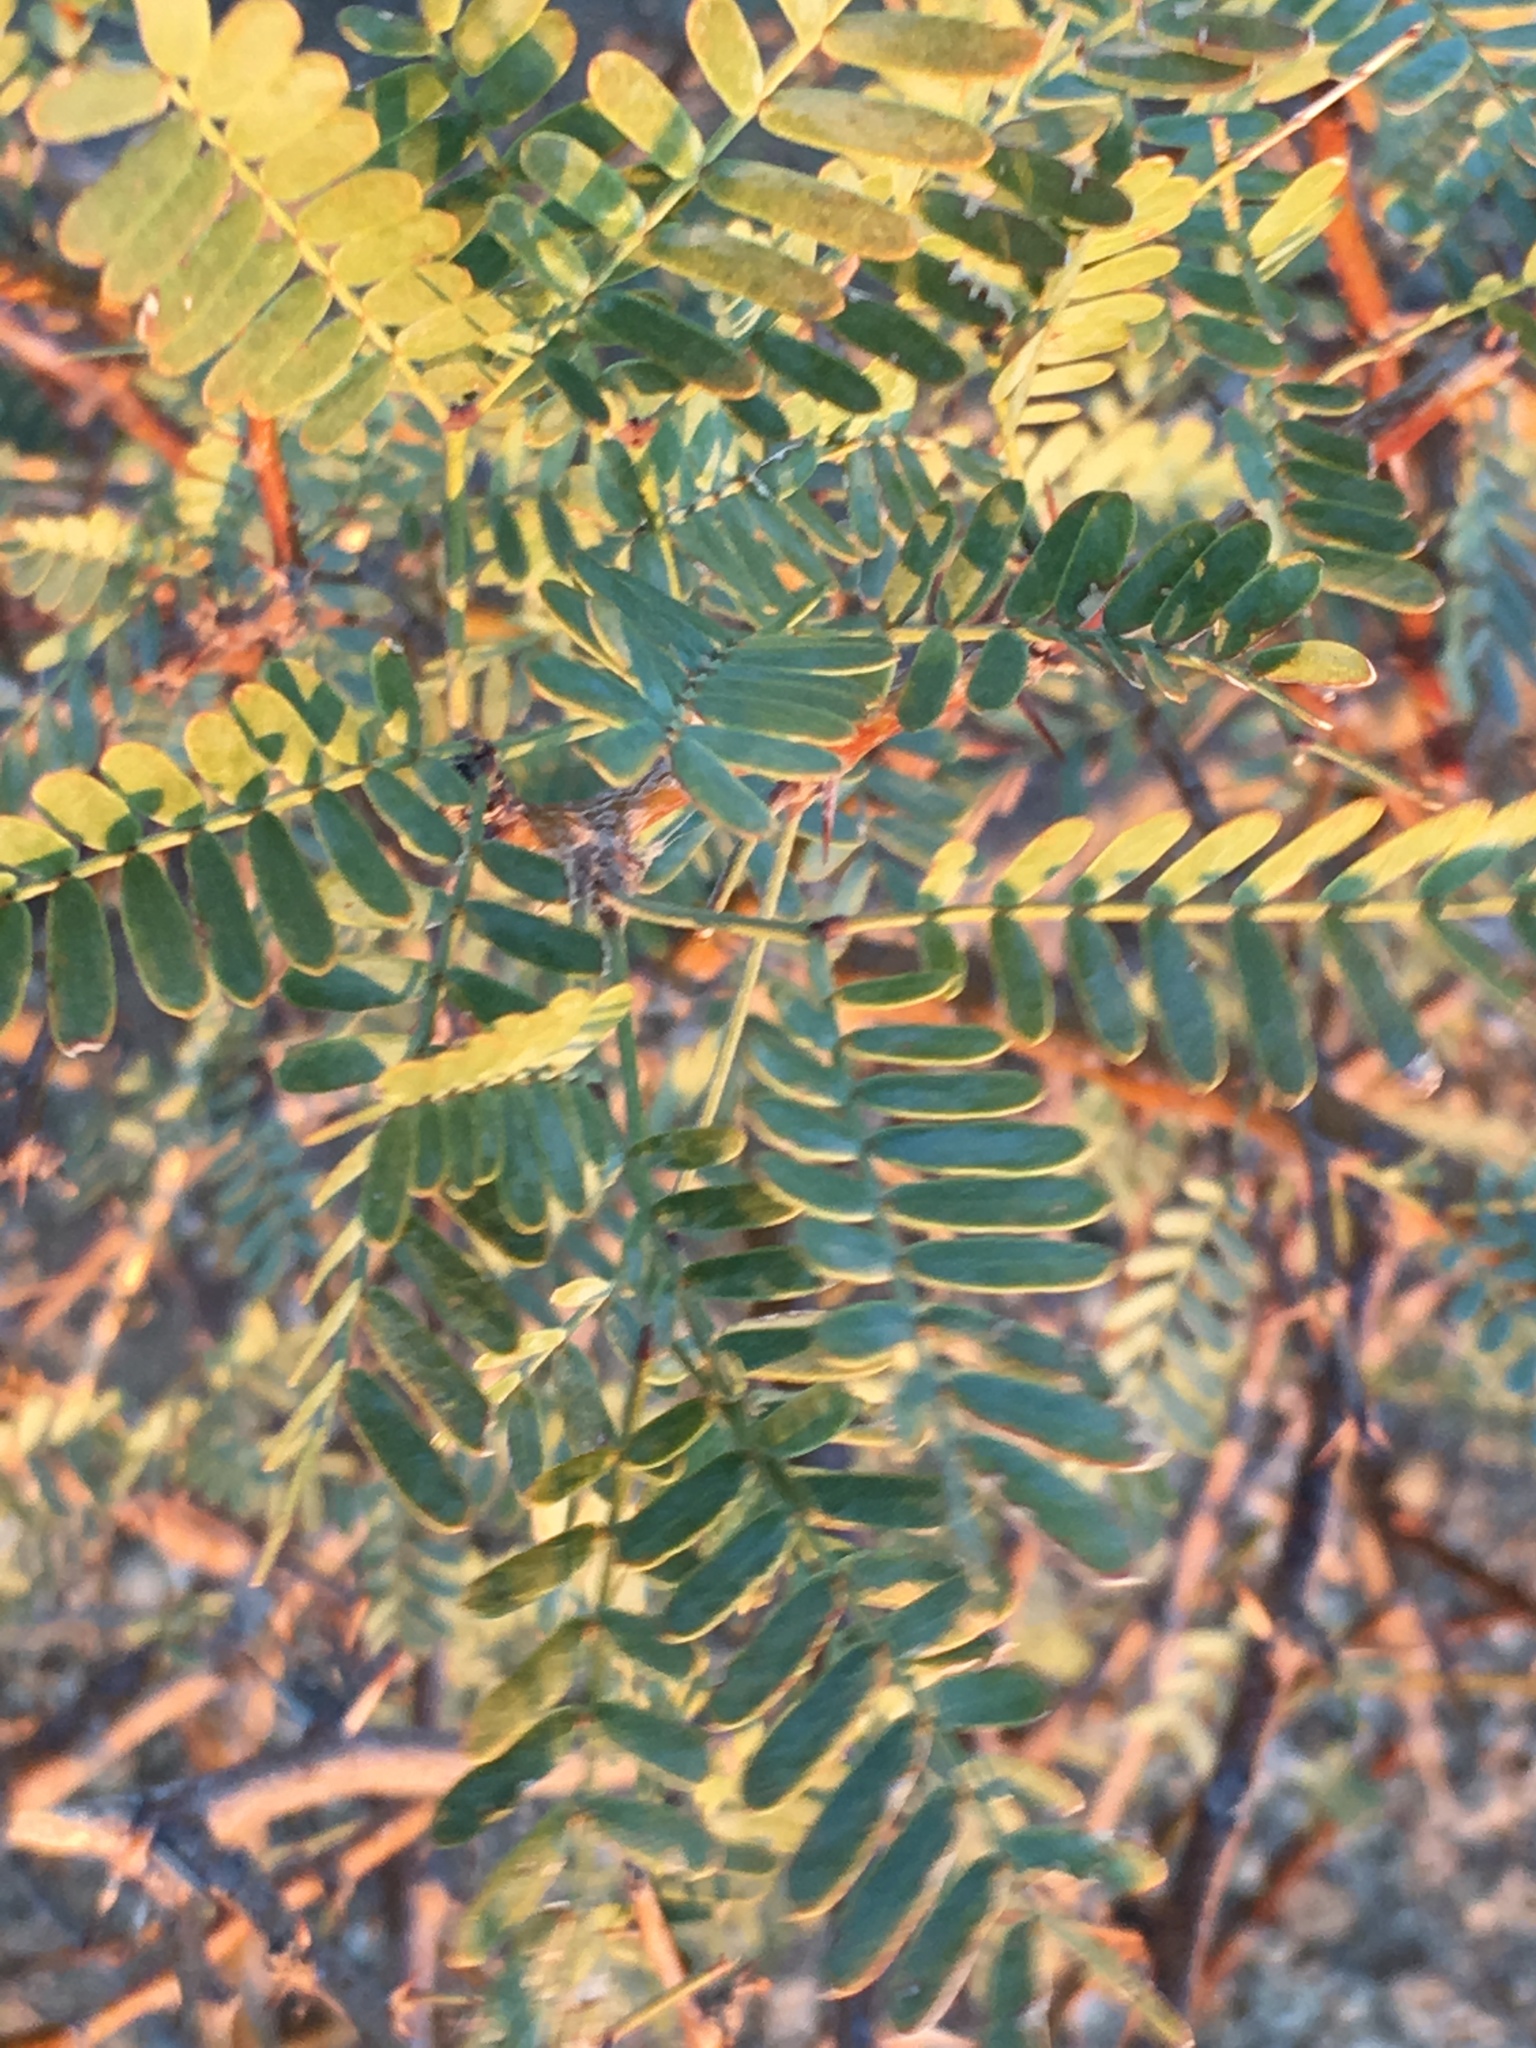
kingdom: Plantae
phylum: Tracheophyta
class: Magnoliopsida
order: Fabales
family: Fabaceae
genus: Prosopis
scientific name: Prosopis pubescens
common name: Screw-bean
